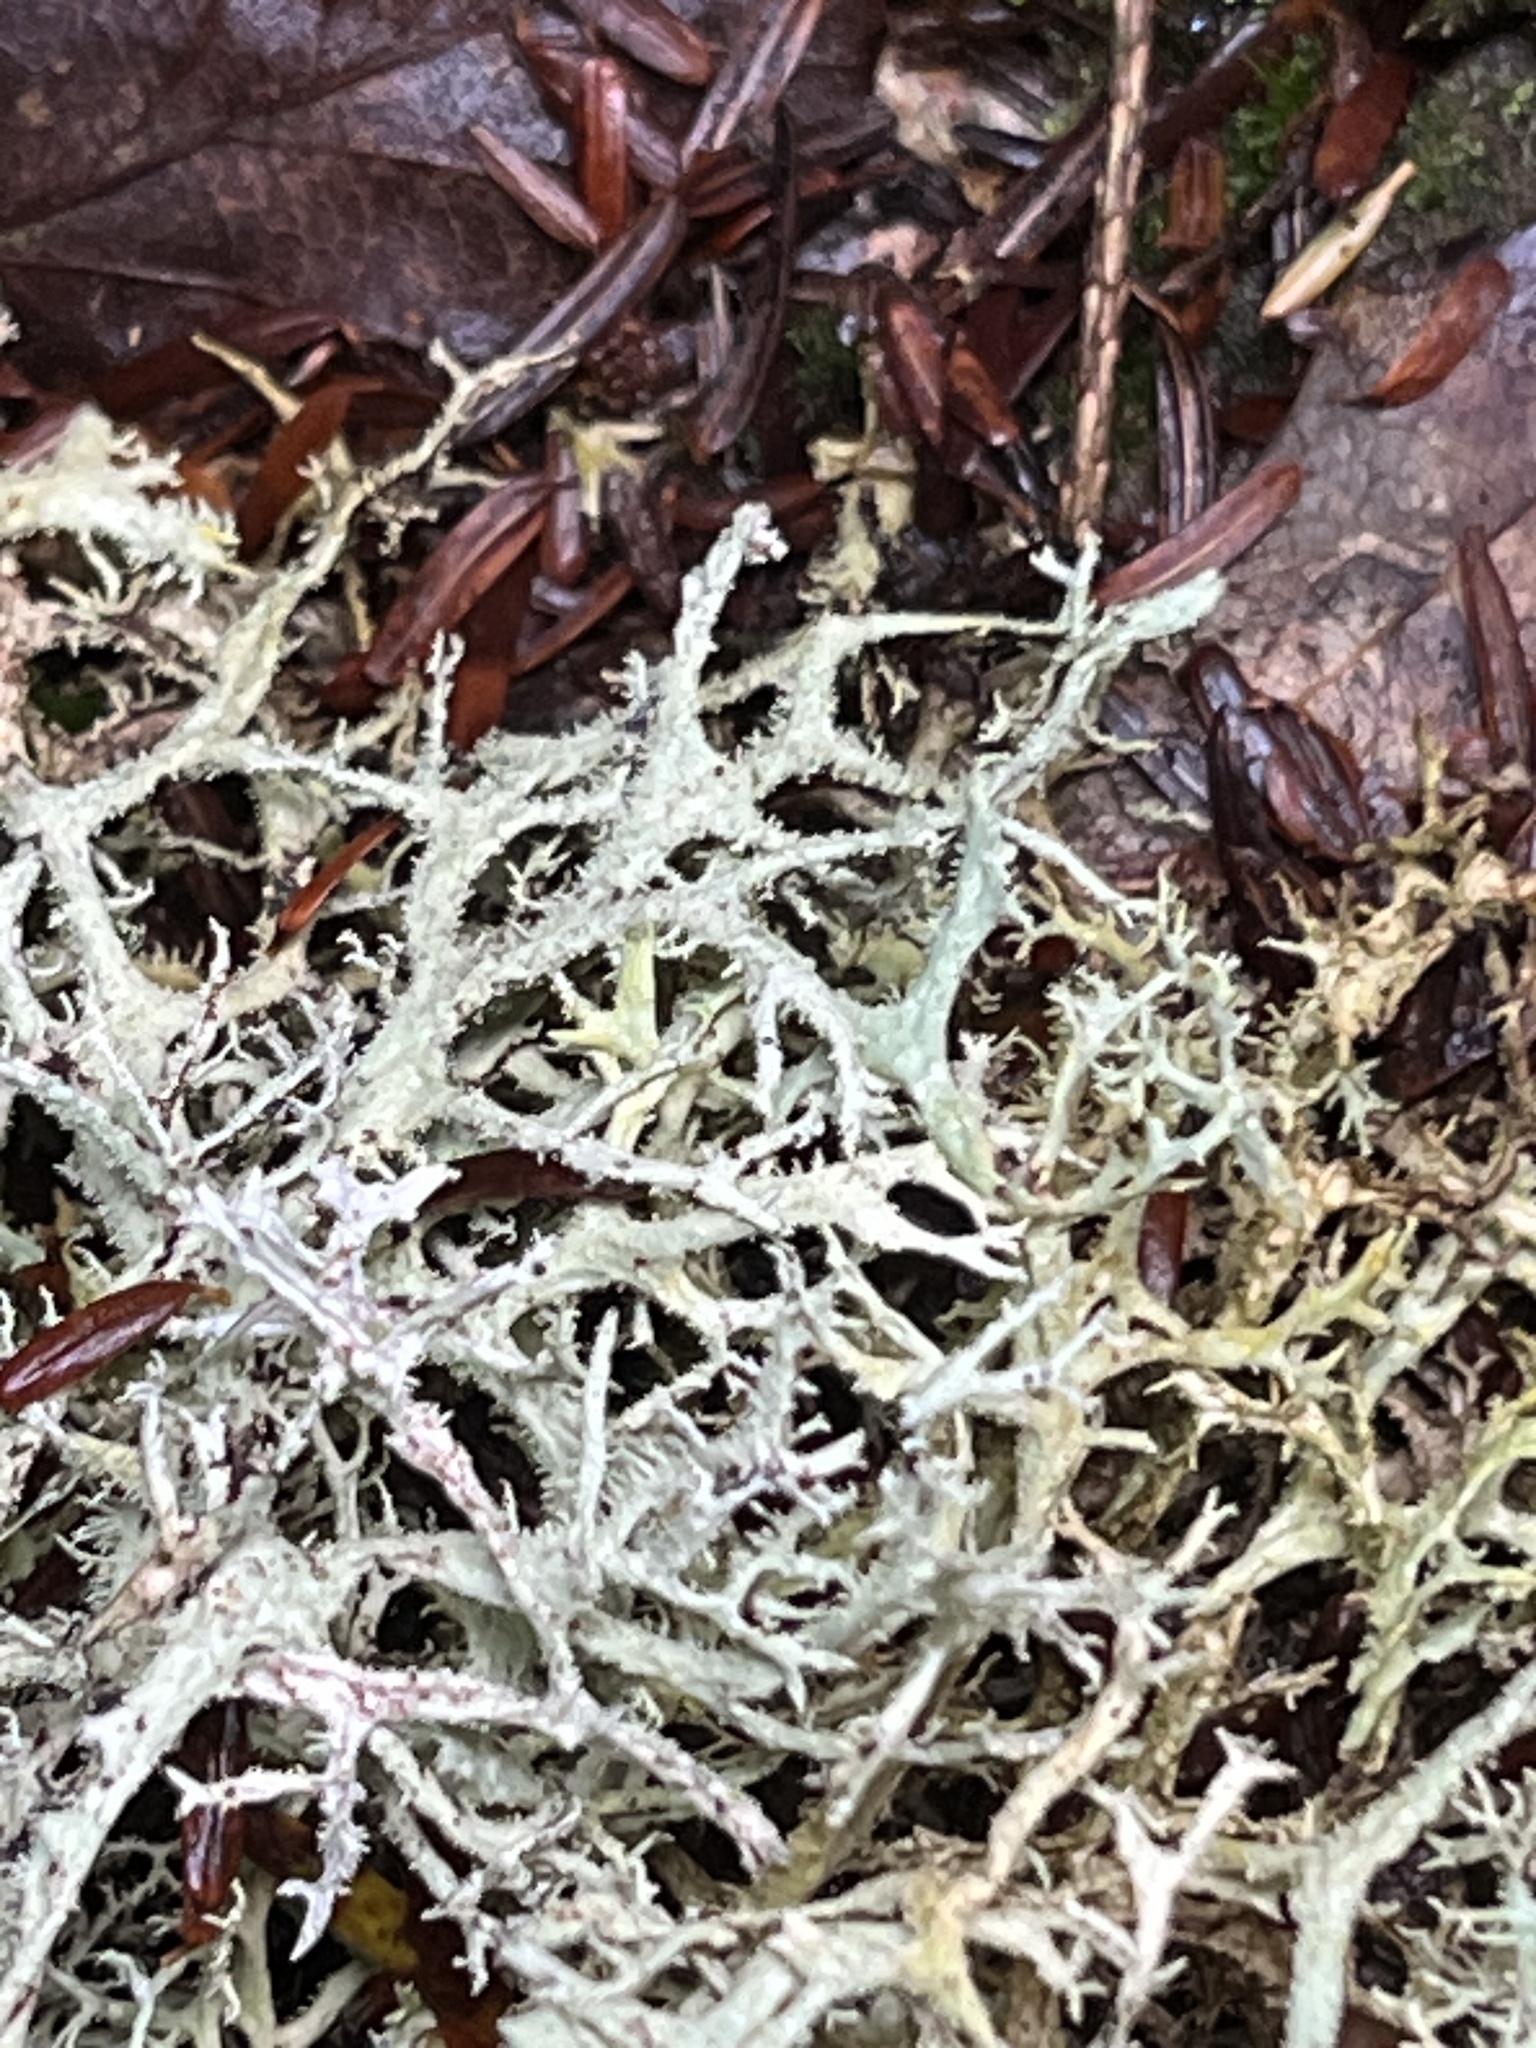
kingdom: Fungi
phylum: Ascomycota
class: Lecanoromycetes
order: Lecanorales
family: Parmeliaceae
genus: Pseudevernia
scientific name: Pseudevernia consocians
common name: Common antler lichen
